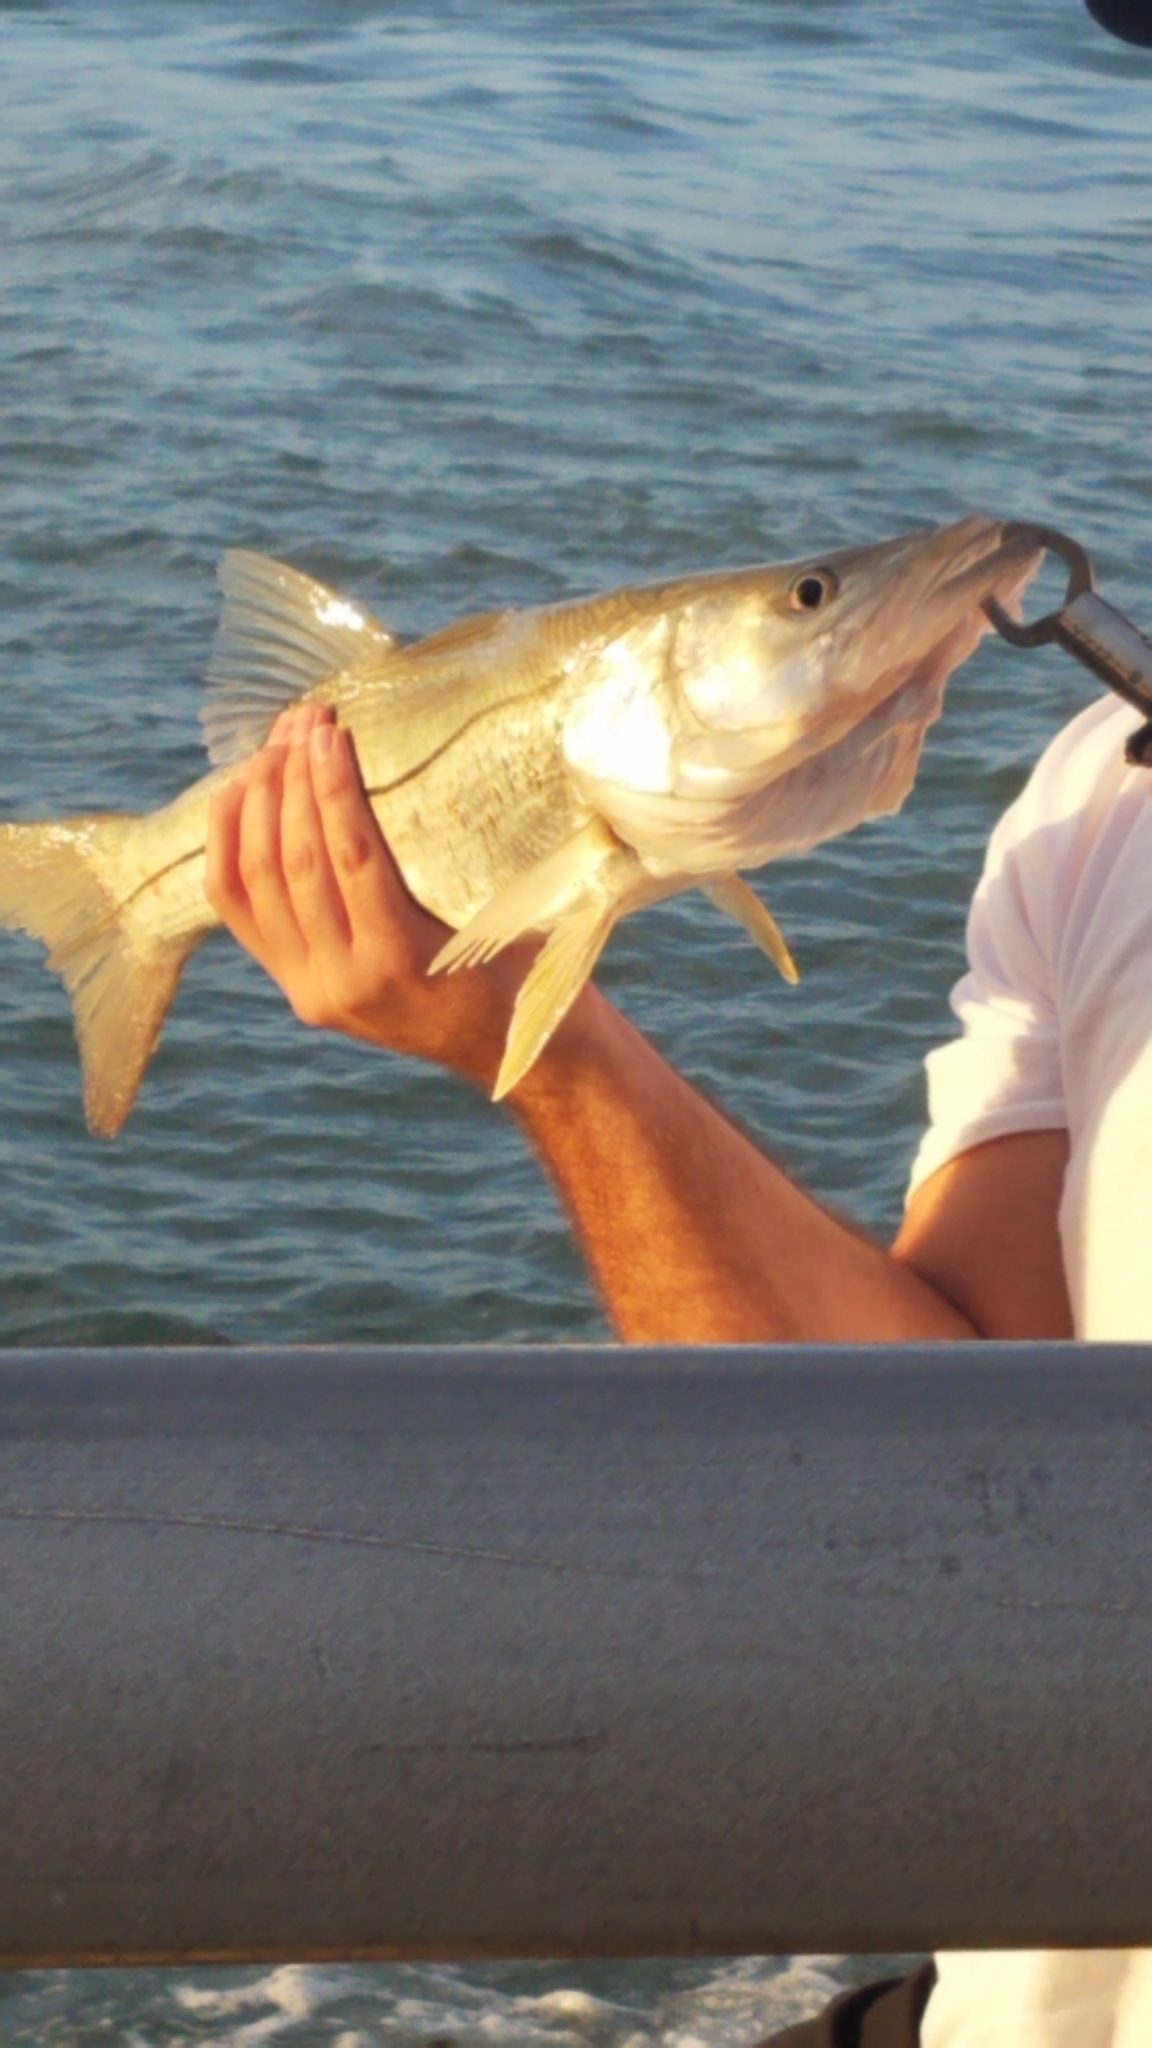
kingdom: Animalia
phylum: Chordata
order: Perciformes
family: Centropomidae
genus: Centropomus
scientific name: Centropomus undecimalis
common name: Snook
